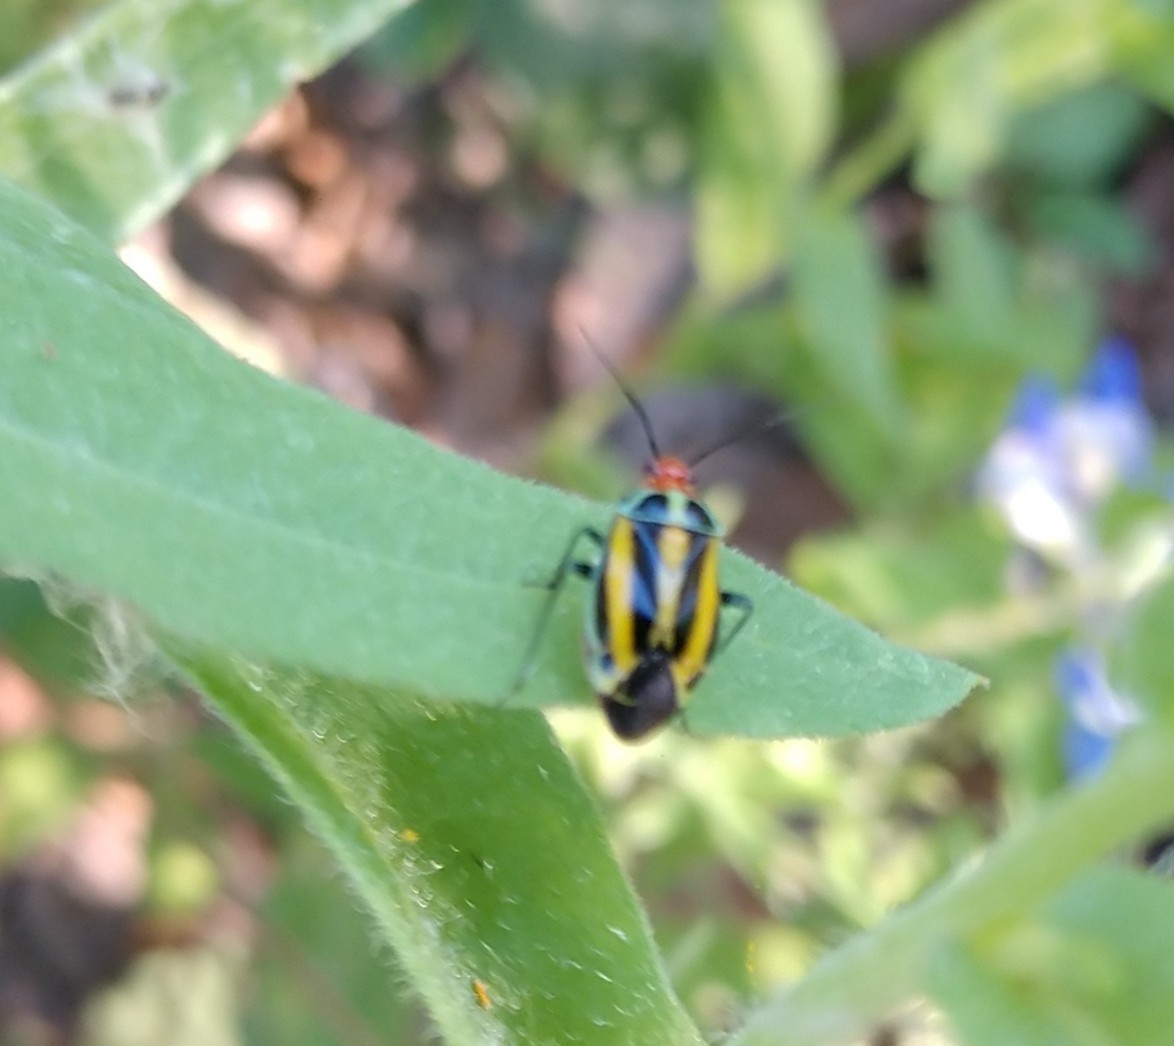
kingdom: Animalia
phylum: Arthropoda
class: Insecta
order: Hemiptera
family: Miridae
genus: Poecilocapsus
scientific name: Poecilocapsus lineatus
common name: Four-lined plant bug
